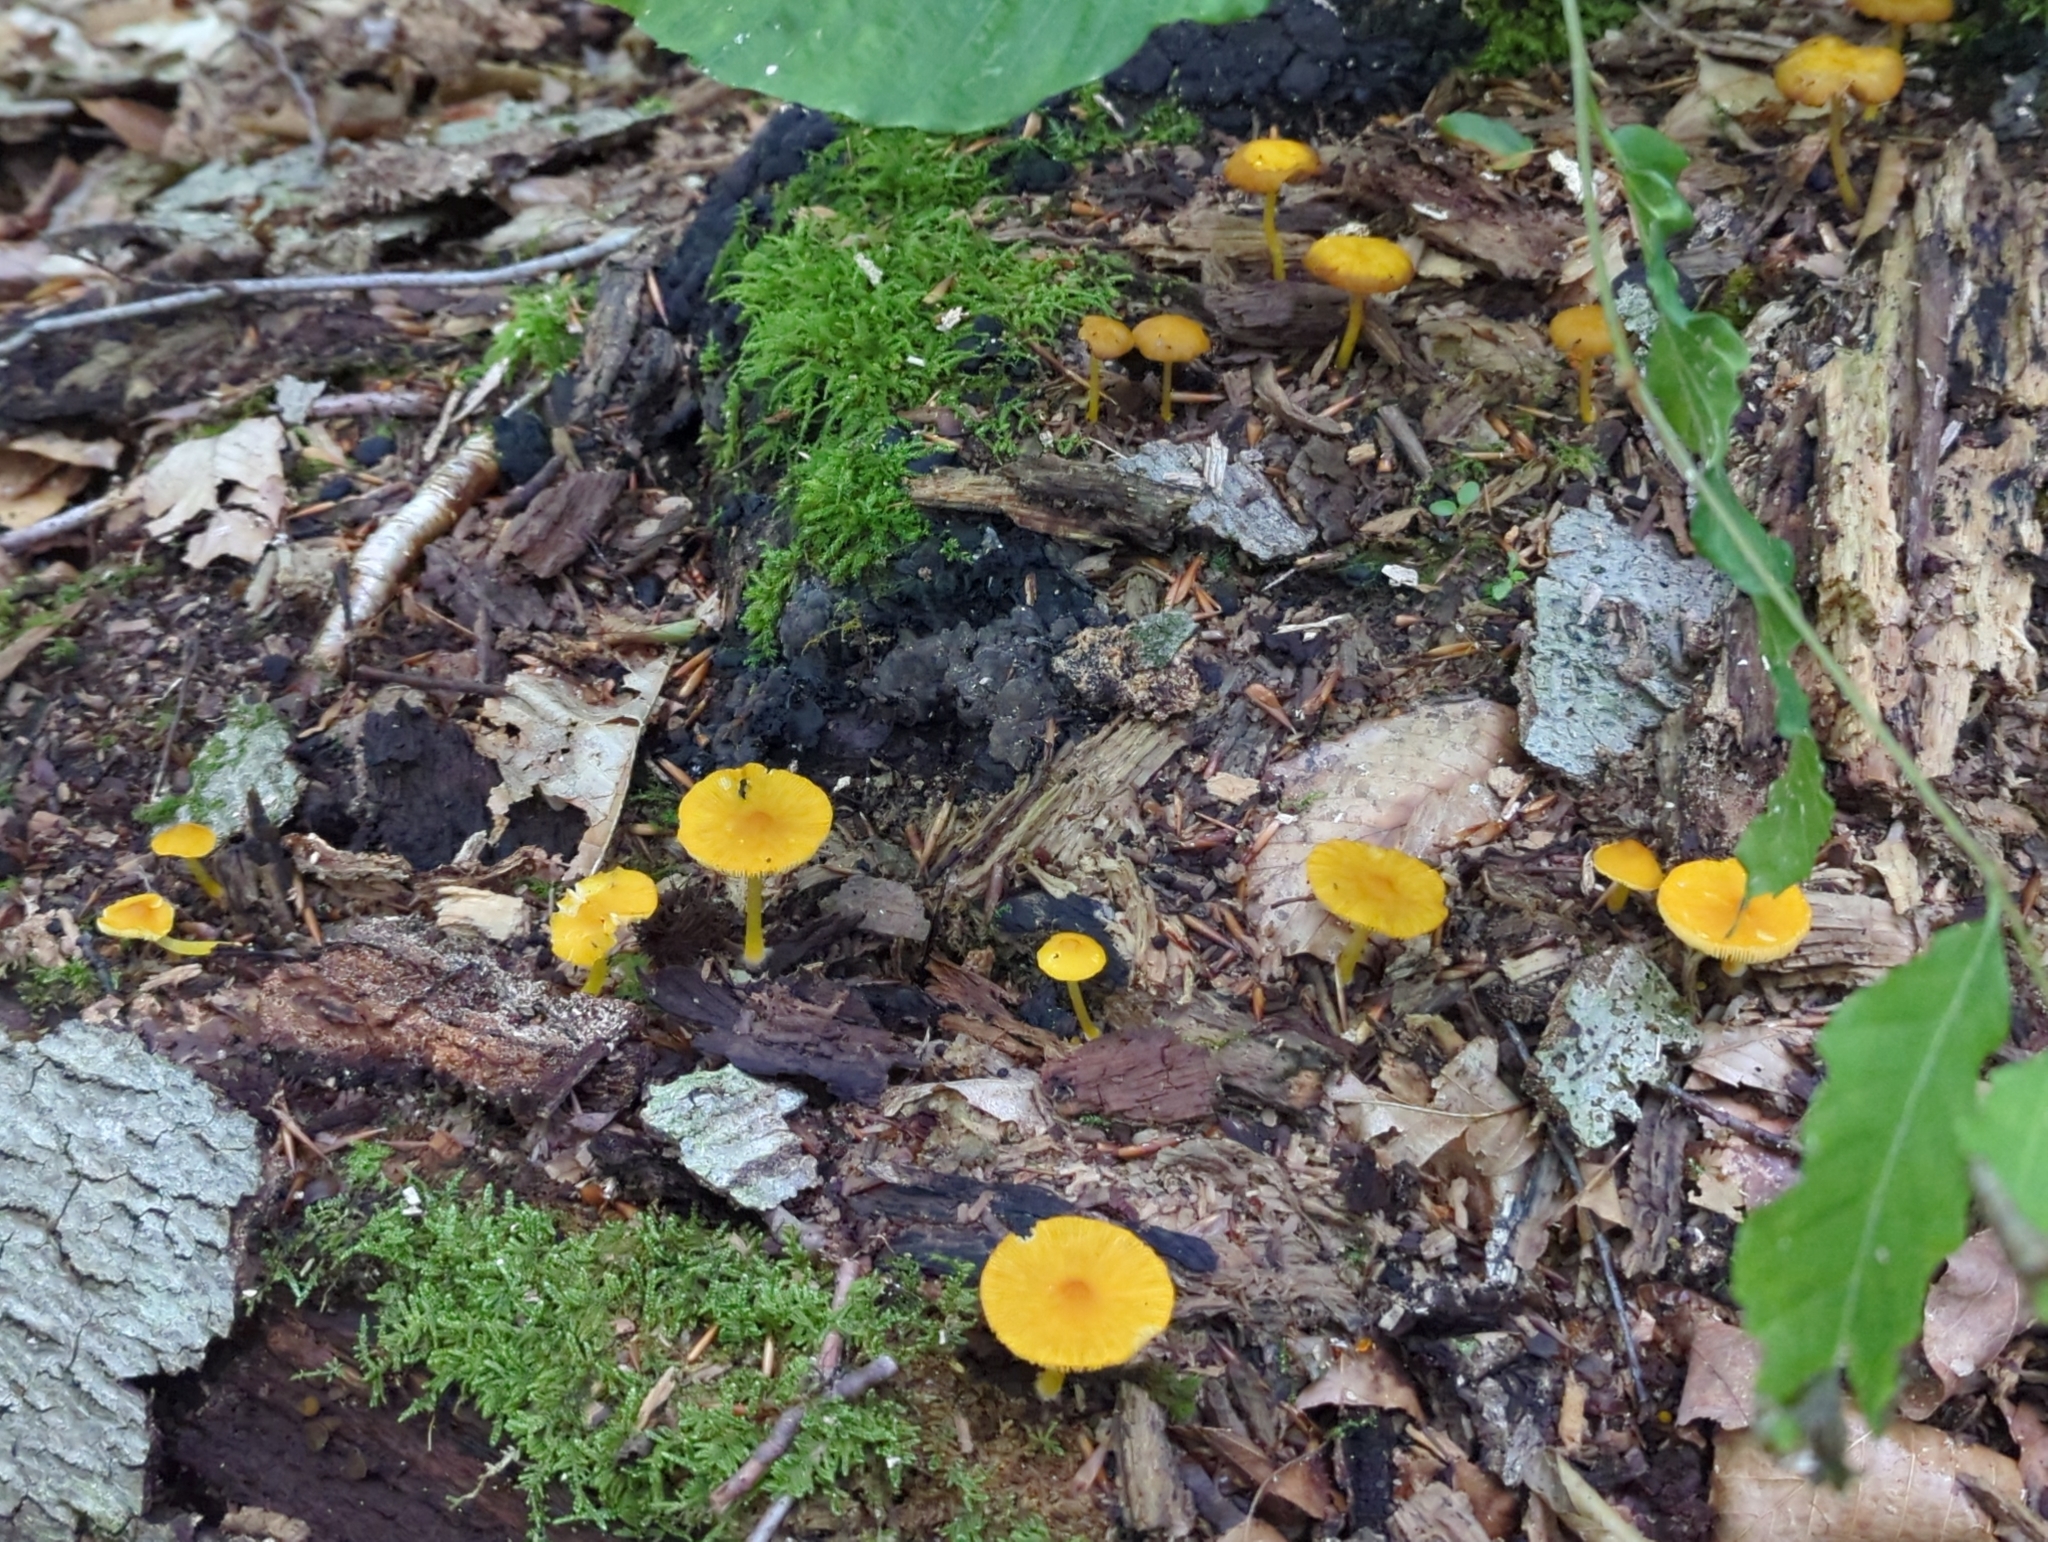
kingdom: Fungi
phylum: Basidiomycota
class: Agaricomycetes
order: Agaricales
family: Pluteaceae
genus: Pluteus
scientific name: Pluteus chrysophlebius
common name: Yellow deer mushroom
